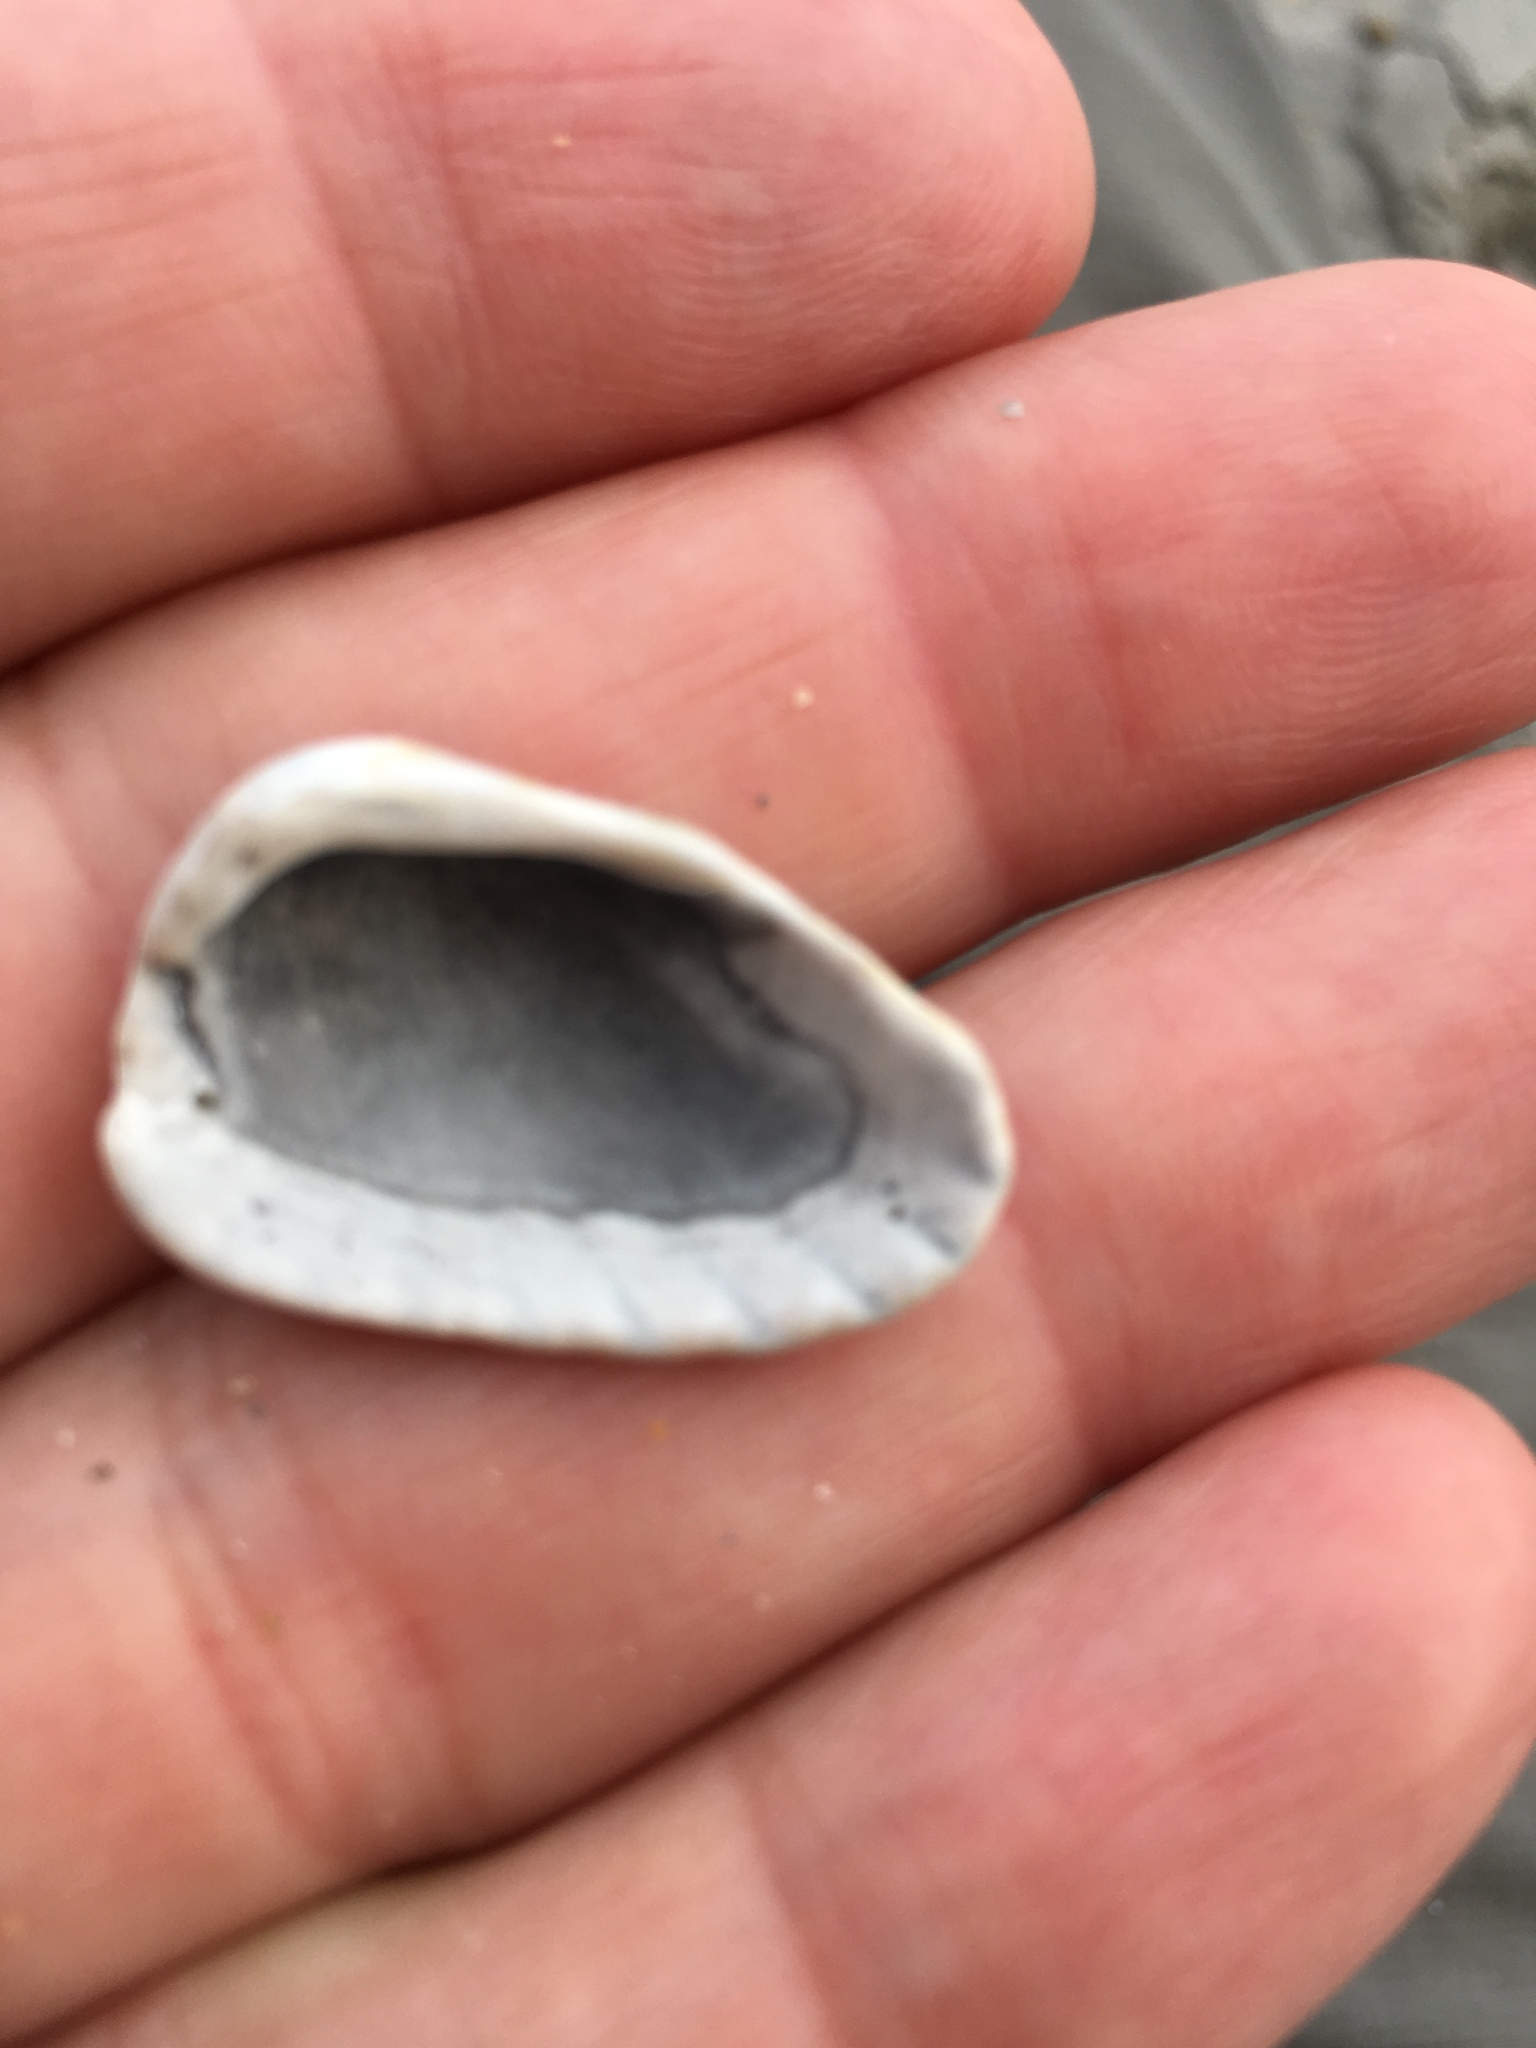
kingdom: Animalia
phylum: Mollusca
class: Bivalvia
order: Carditida
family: Carditidae
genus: Cardites
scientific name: Cardites floridanus
